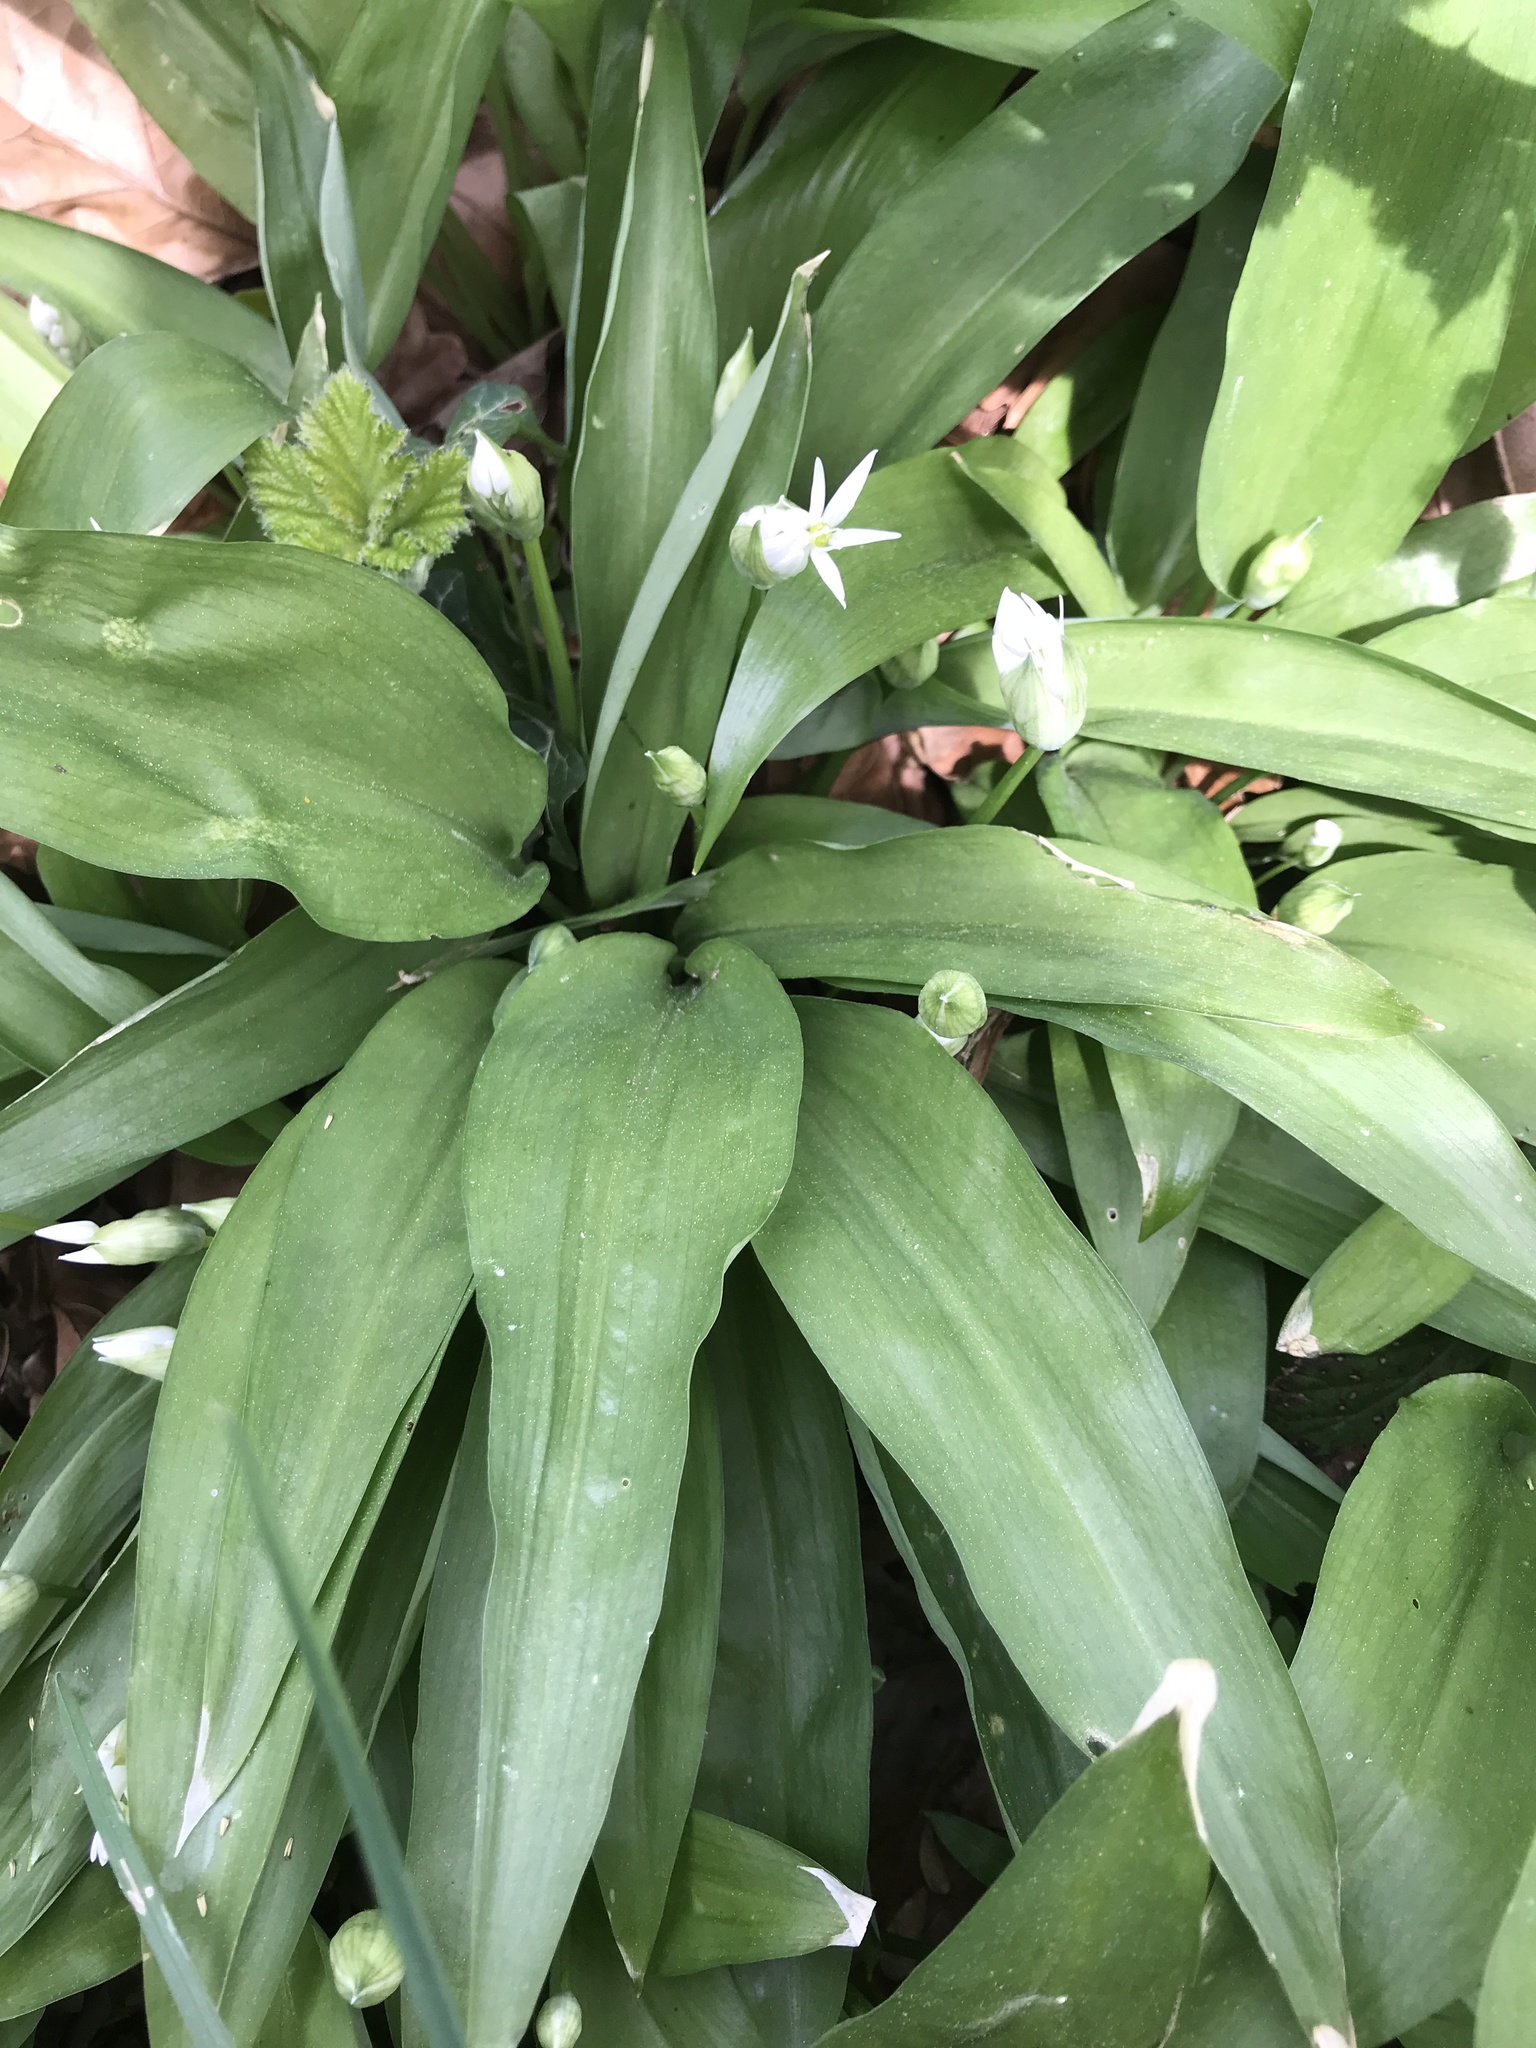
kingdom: Plantae
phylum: Tracheophyta
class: Liliopsida
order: Asparagales
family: Amaryllidaceae
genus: Allium
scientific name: Allium ursinum
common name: Ramsons
